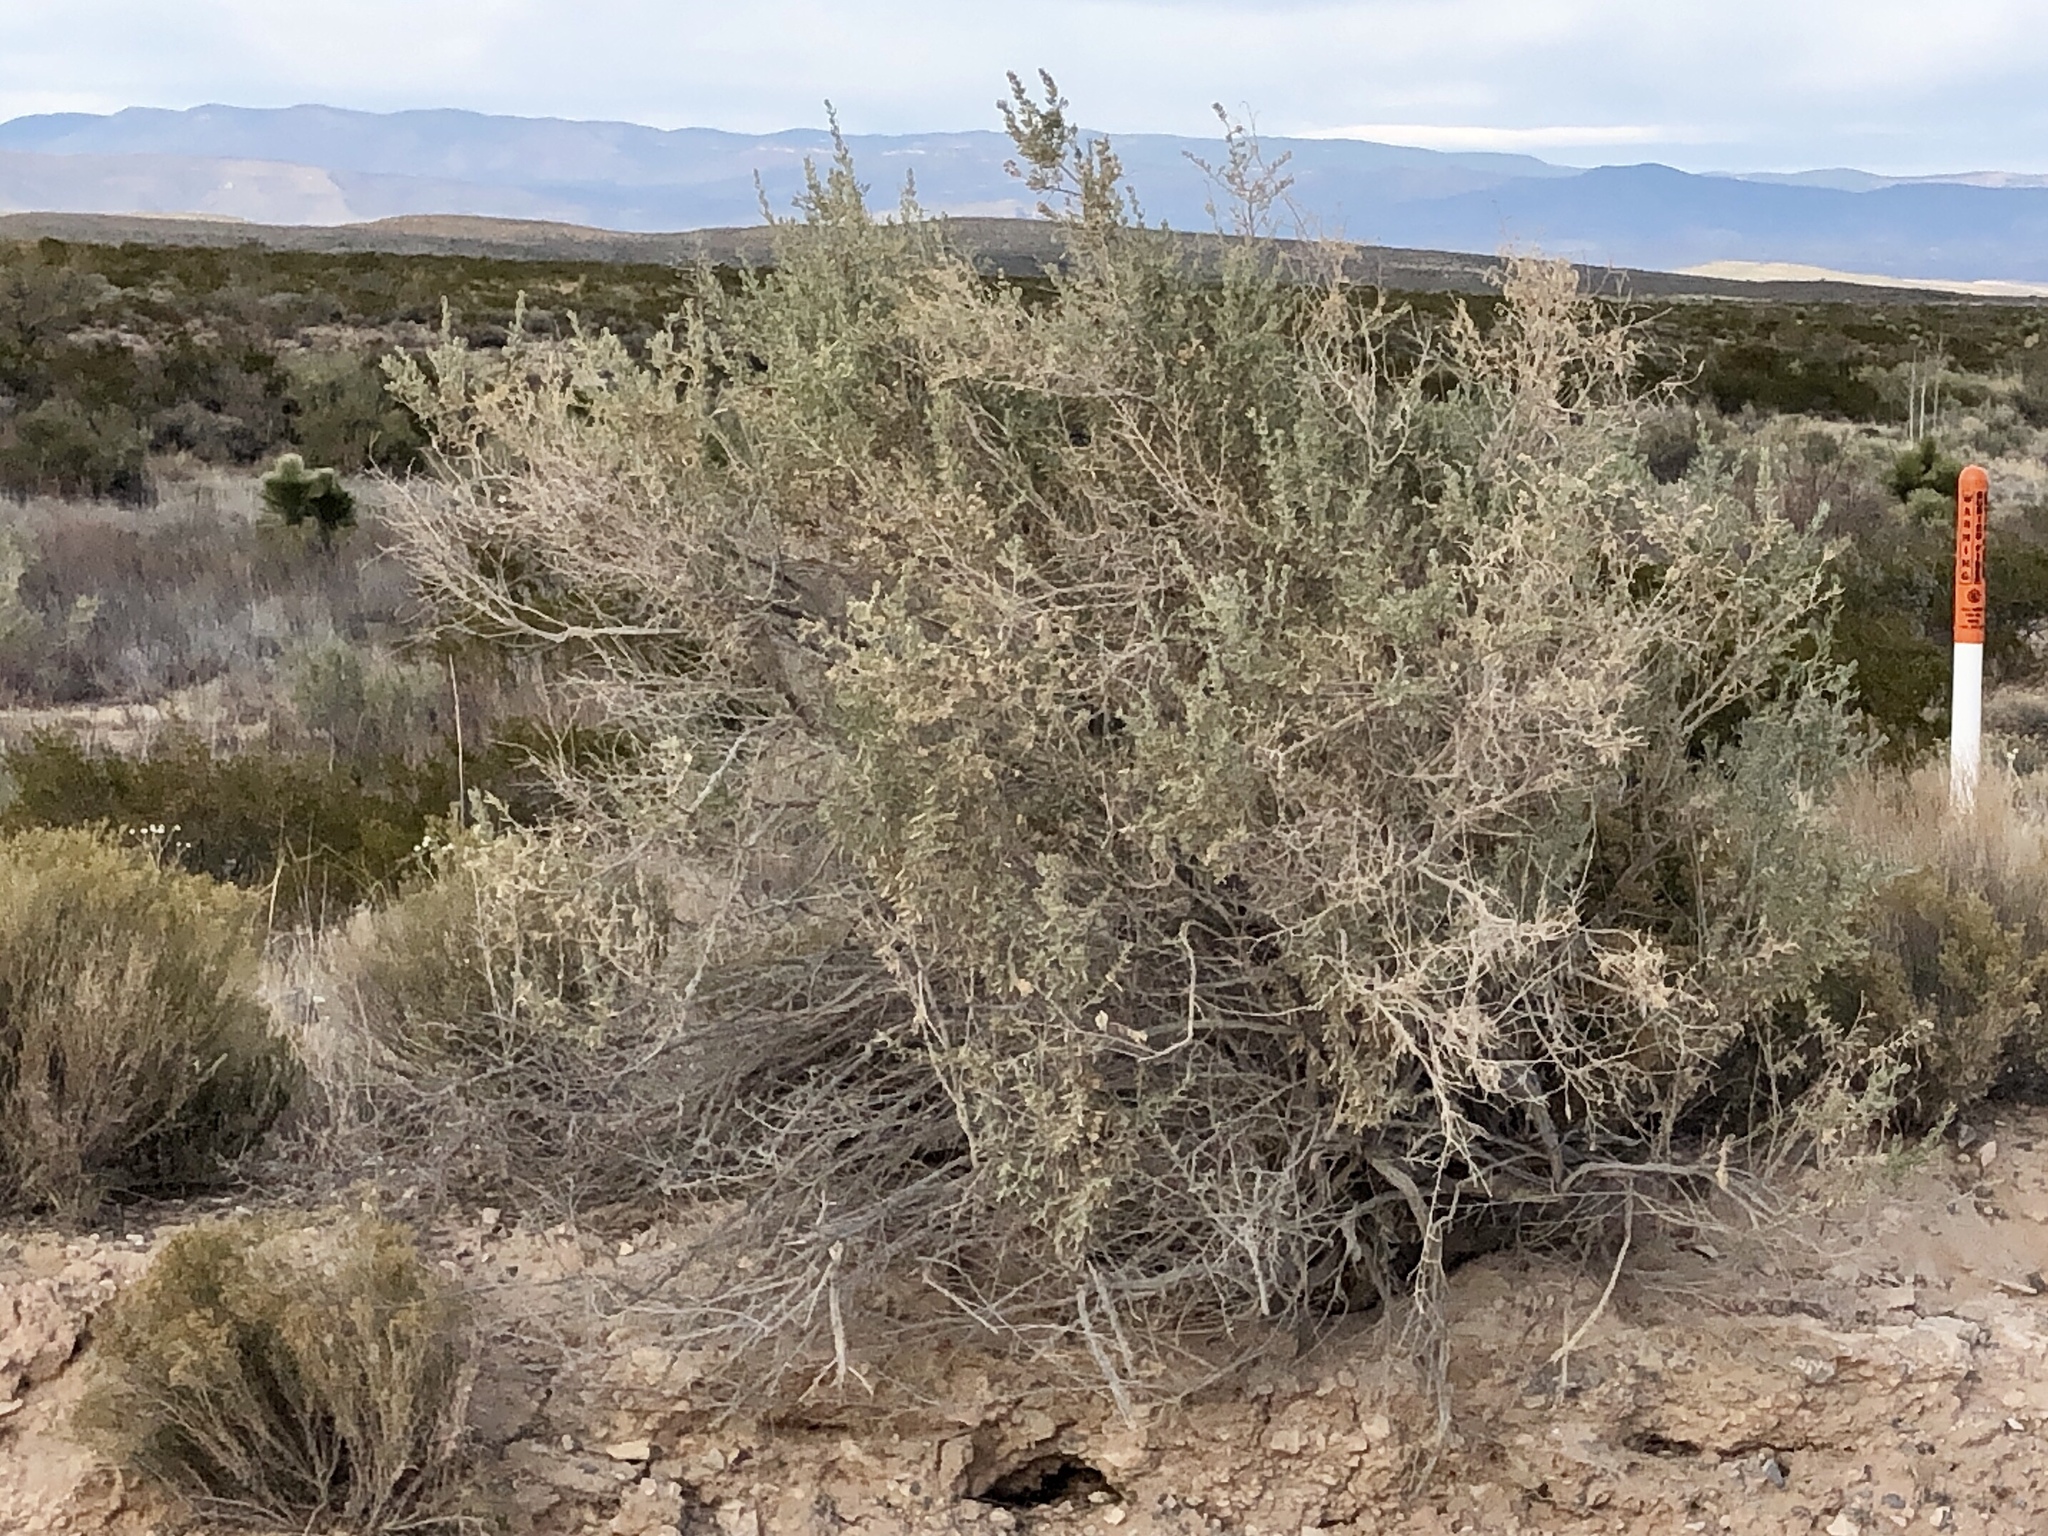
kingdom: Plantae
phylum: Tracheophyta
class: Magnoliopsida
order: Caryophyllales
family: Amaranthaceae
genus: Atriplex
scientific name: Atriplex canescens
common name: Four-wing saltbush
